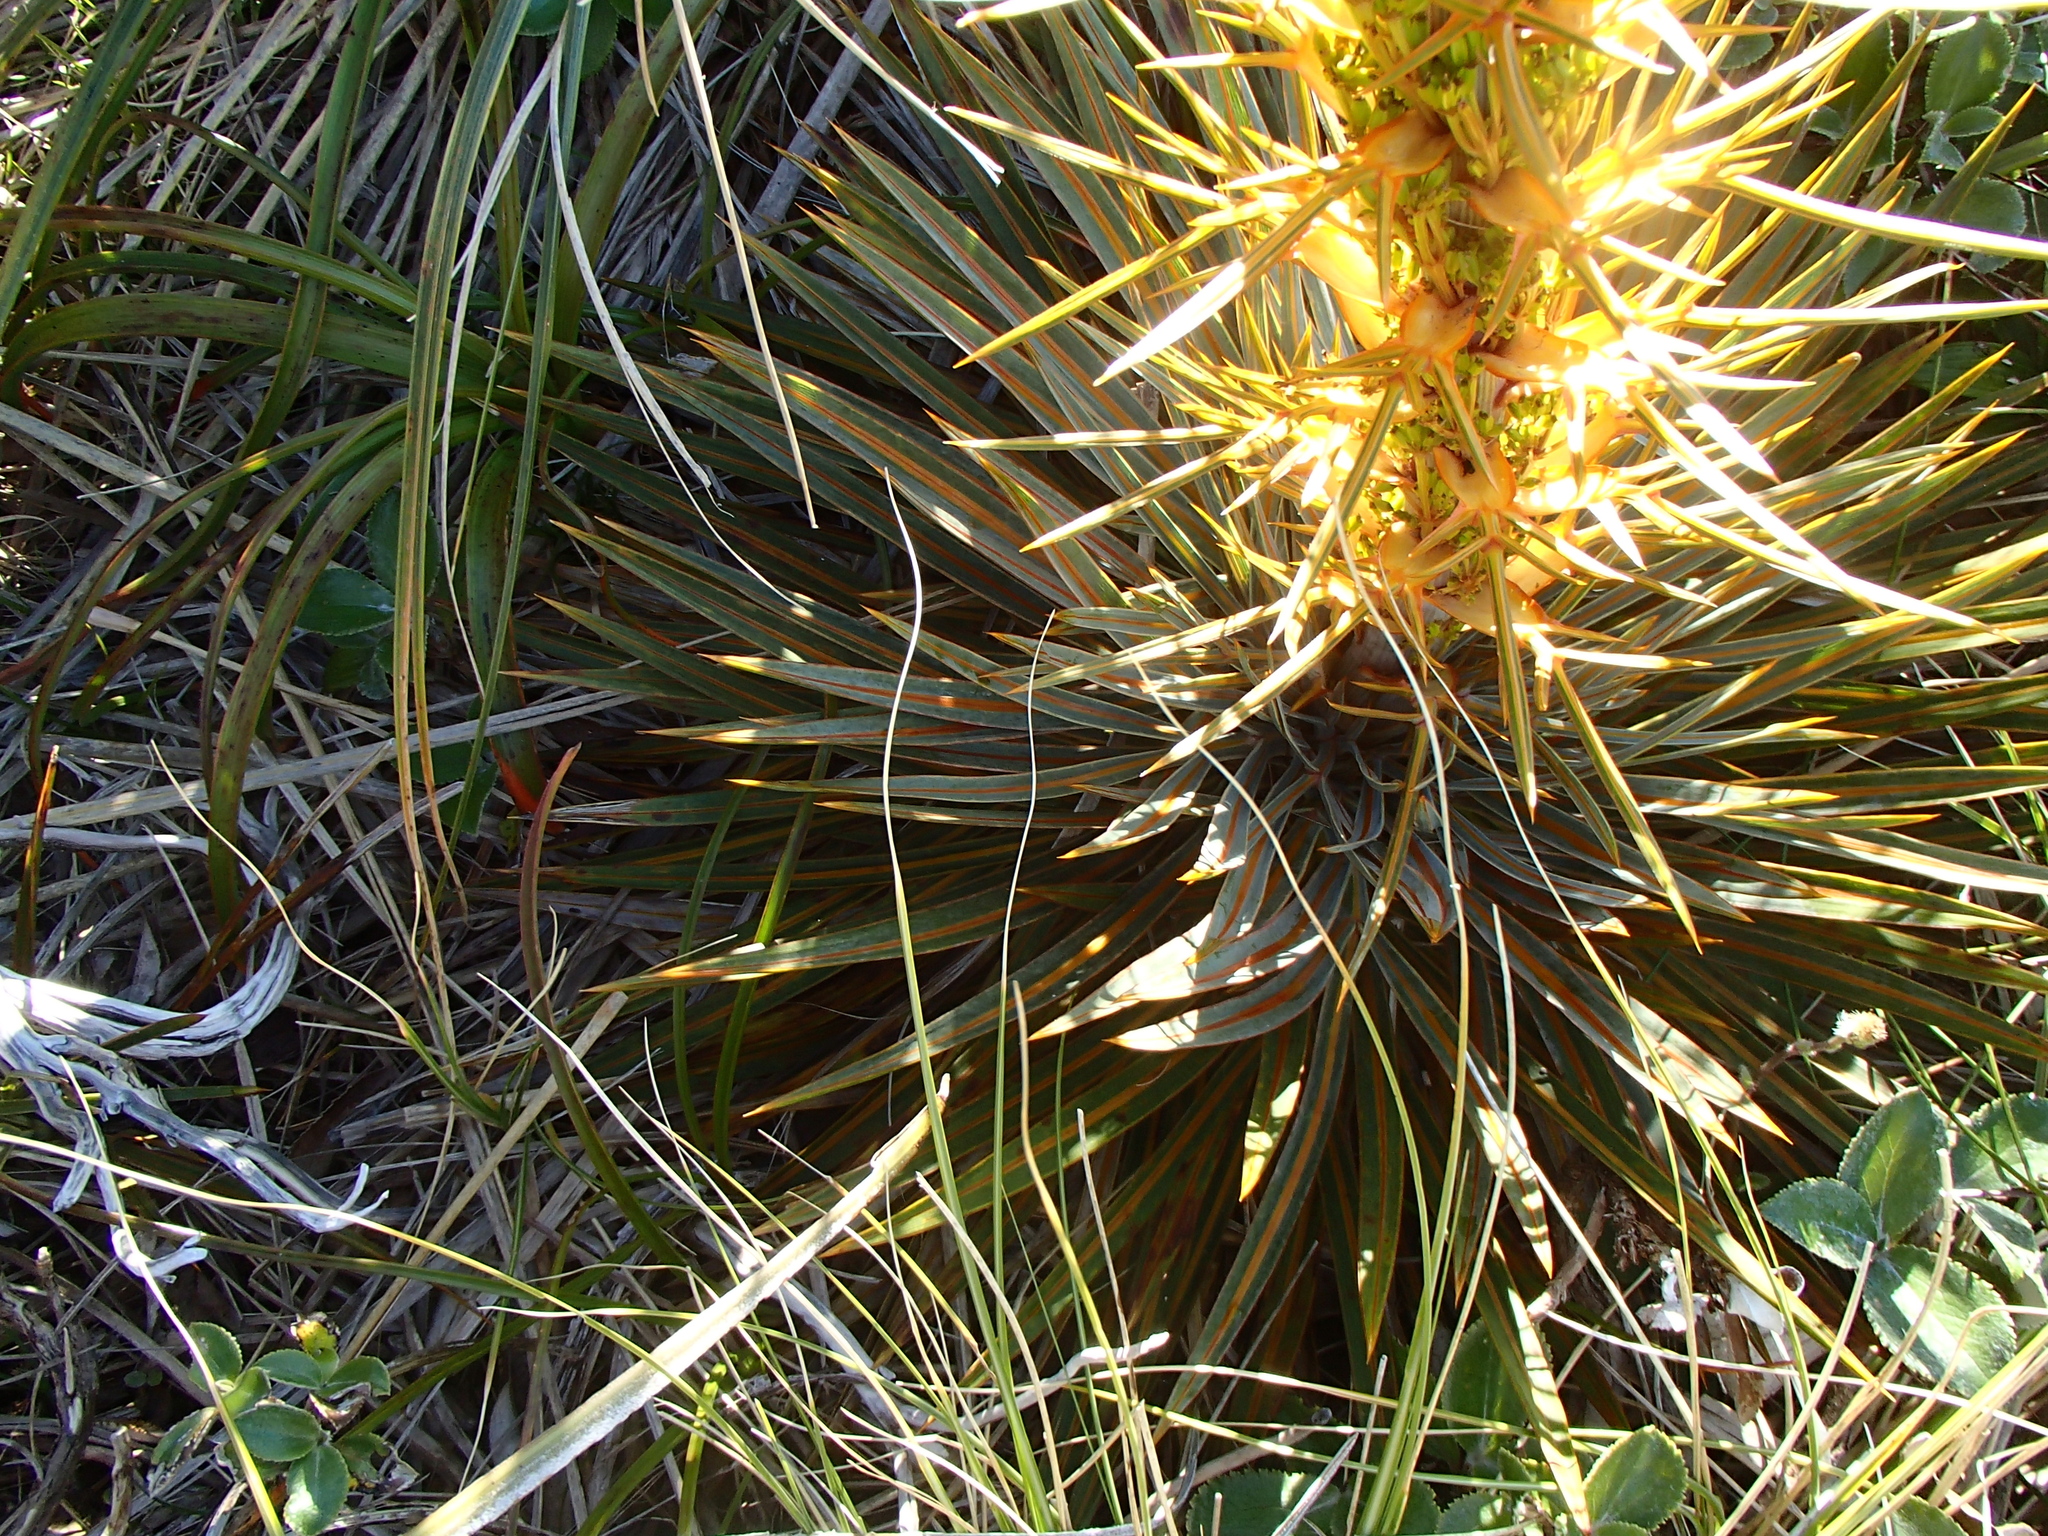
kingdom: Plantae
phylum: Tracheophyta
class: Magnoliopsida
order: Apiales
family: Apiaceae
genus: Aciphylla
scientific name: Aciphylla colensoi
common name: Colenso's spaniard
